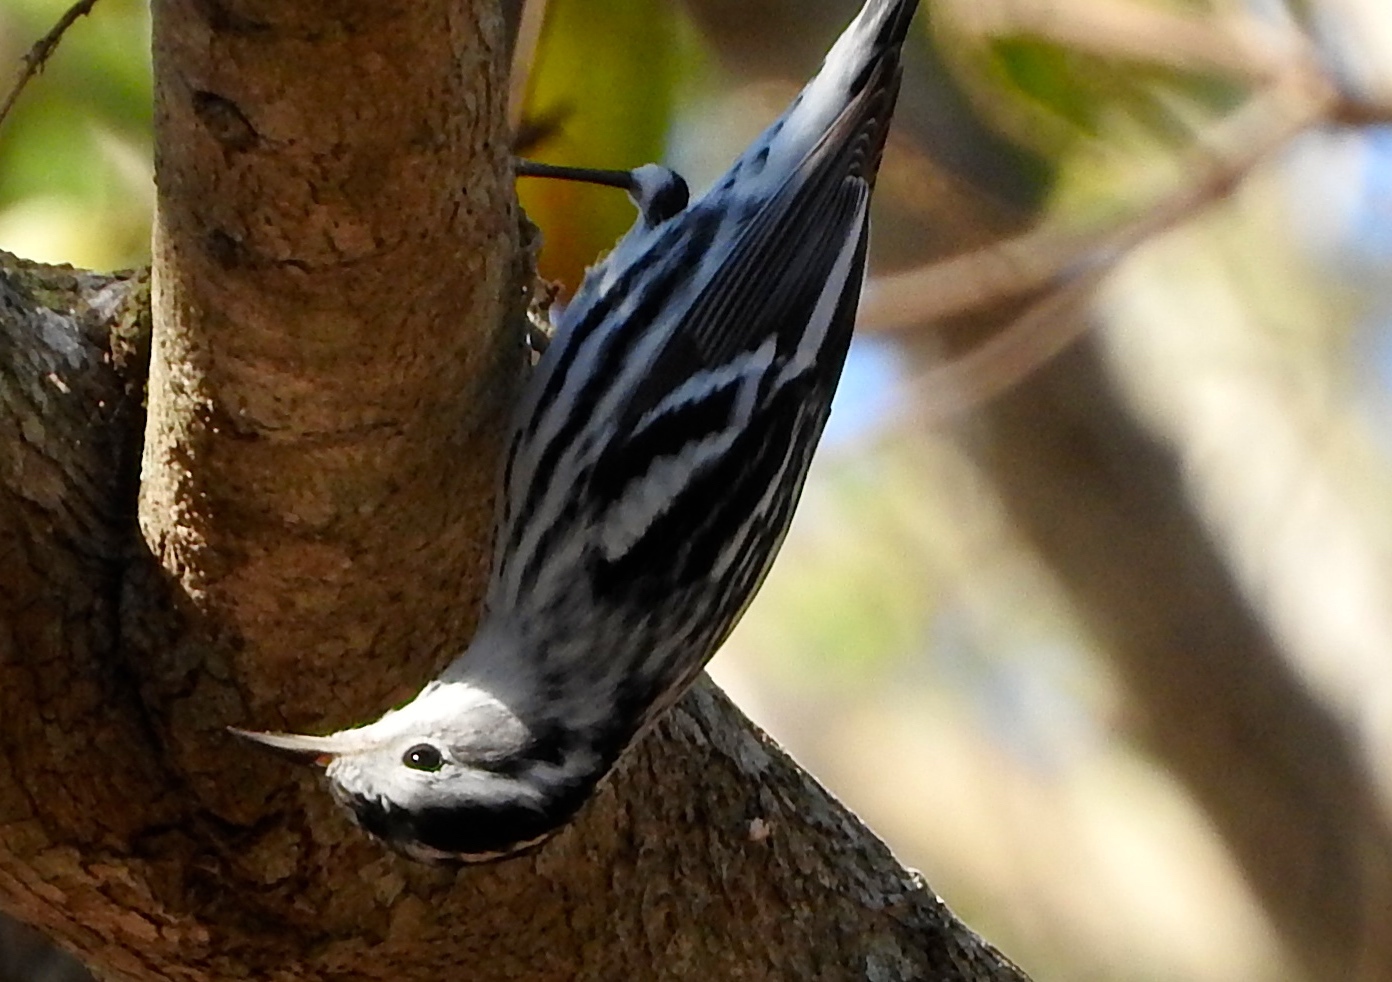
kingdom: Animalia
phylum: Chordata
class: Aves
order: Passeriformes
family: Parulidae
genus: Mniotilta
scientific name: Mniotilta varia
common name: Black-and-white warbler
